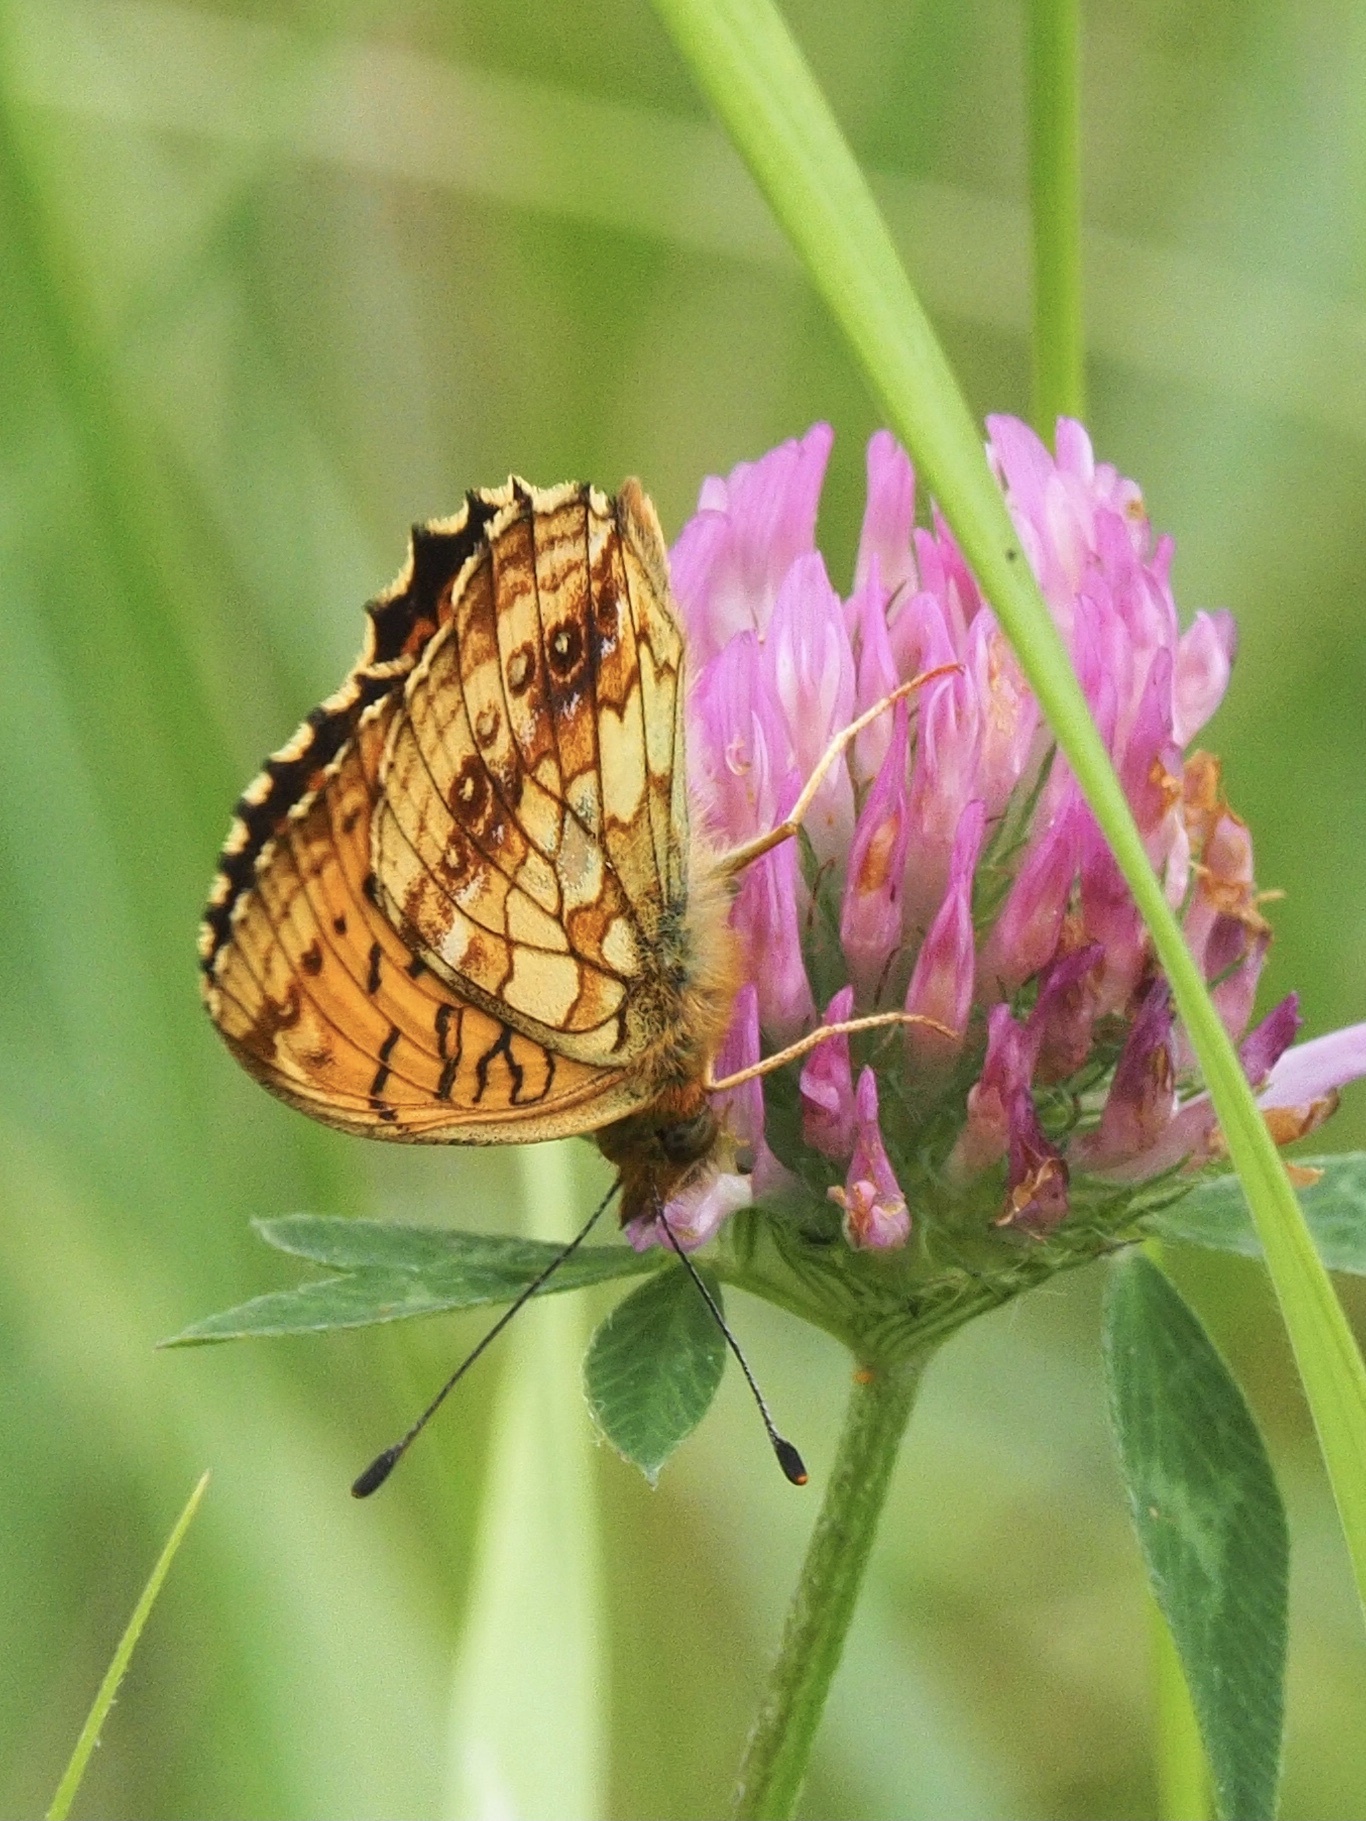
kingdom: Animalia
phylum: Arthropoda
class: Insecta
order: Lepidoptera
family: Nymphalidae
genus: Brenthis
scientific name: Brenthis ino
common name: Lesser marbled fritillary
